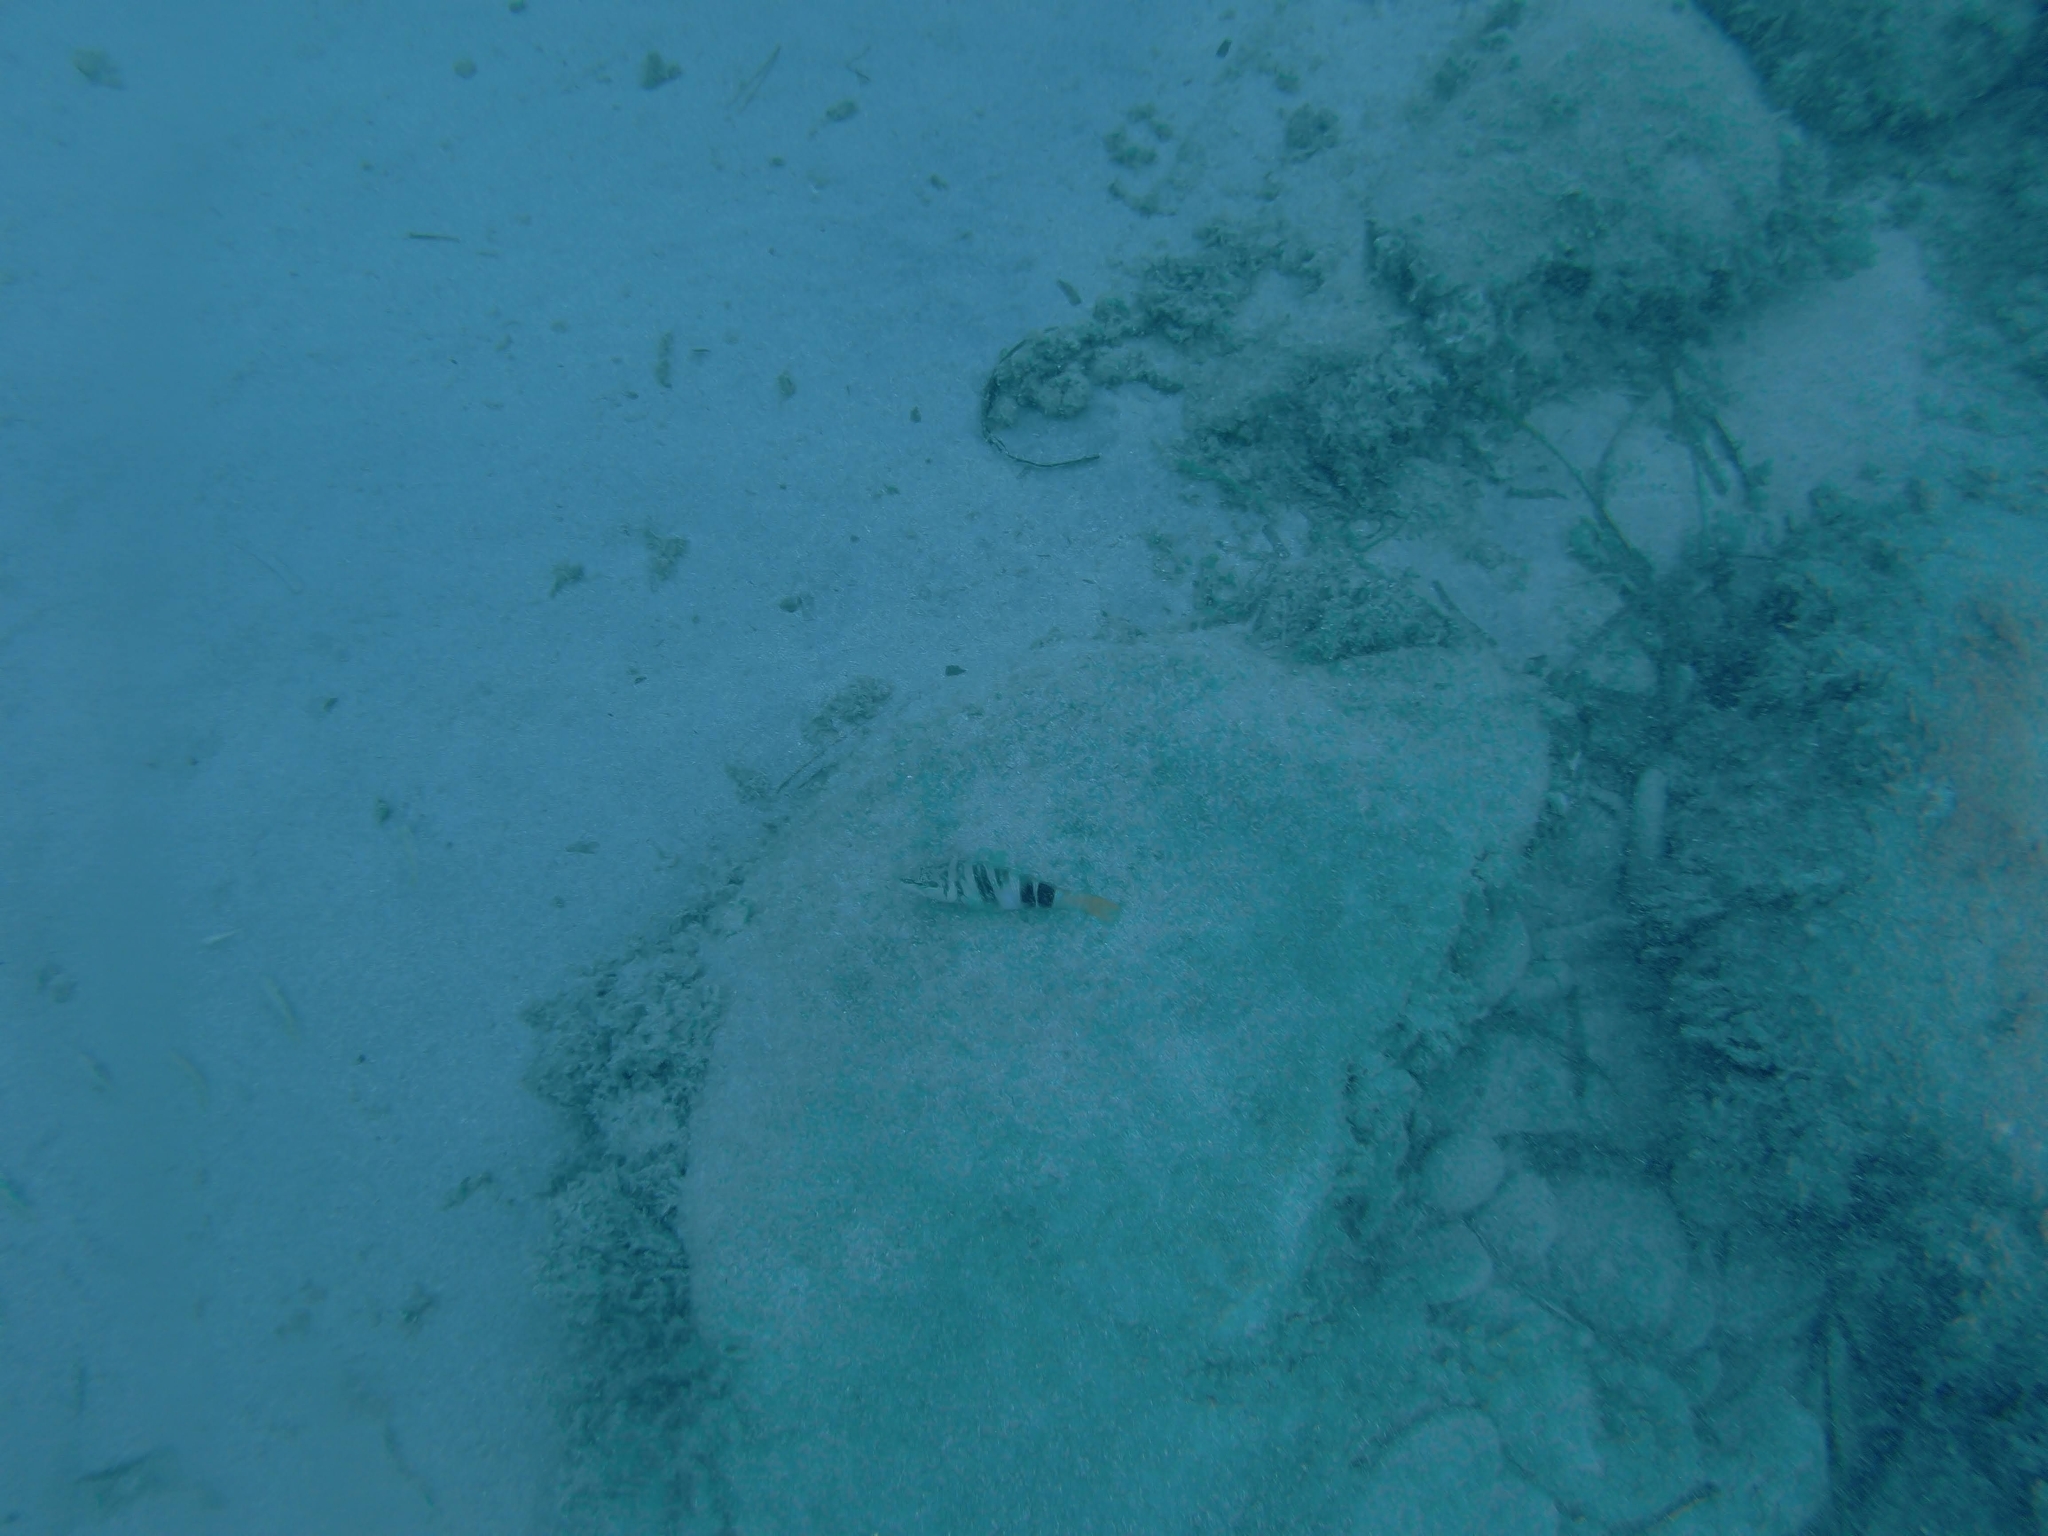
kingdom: Animalia
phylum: Chordata
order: Perciformes
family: Serranidae
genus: Serranus
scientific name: Serranus scriba
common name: Painted comber
